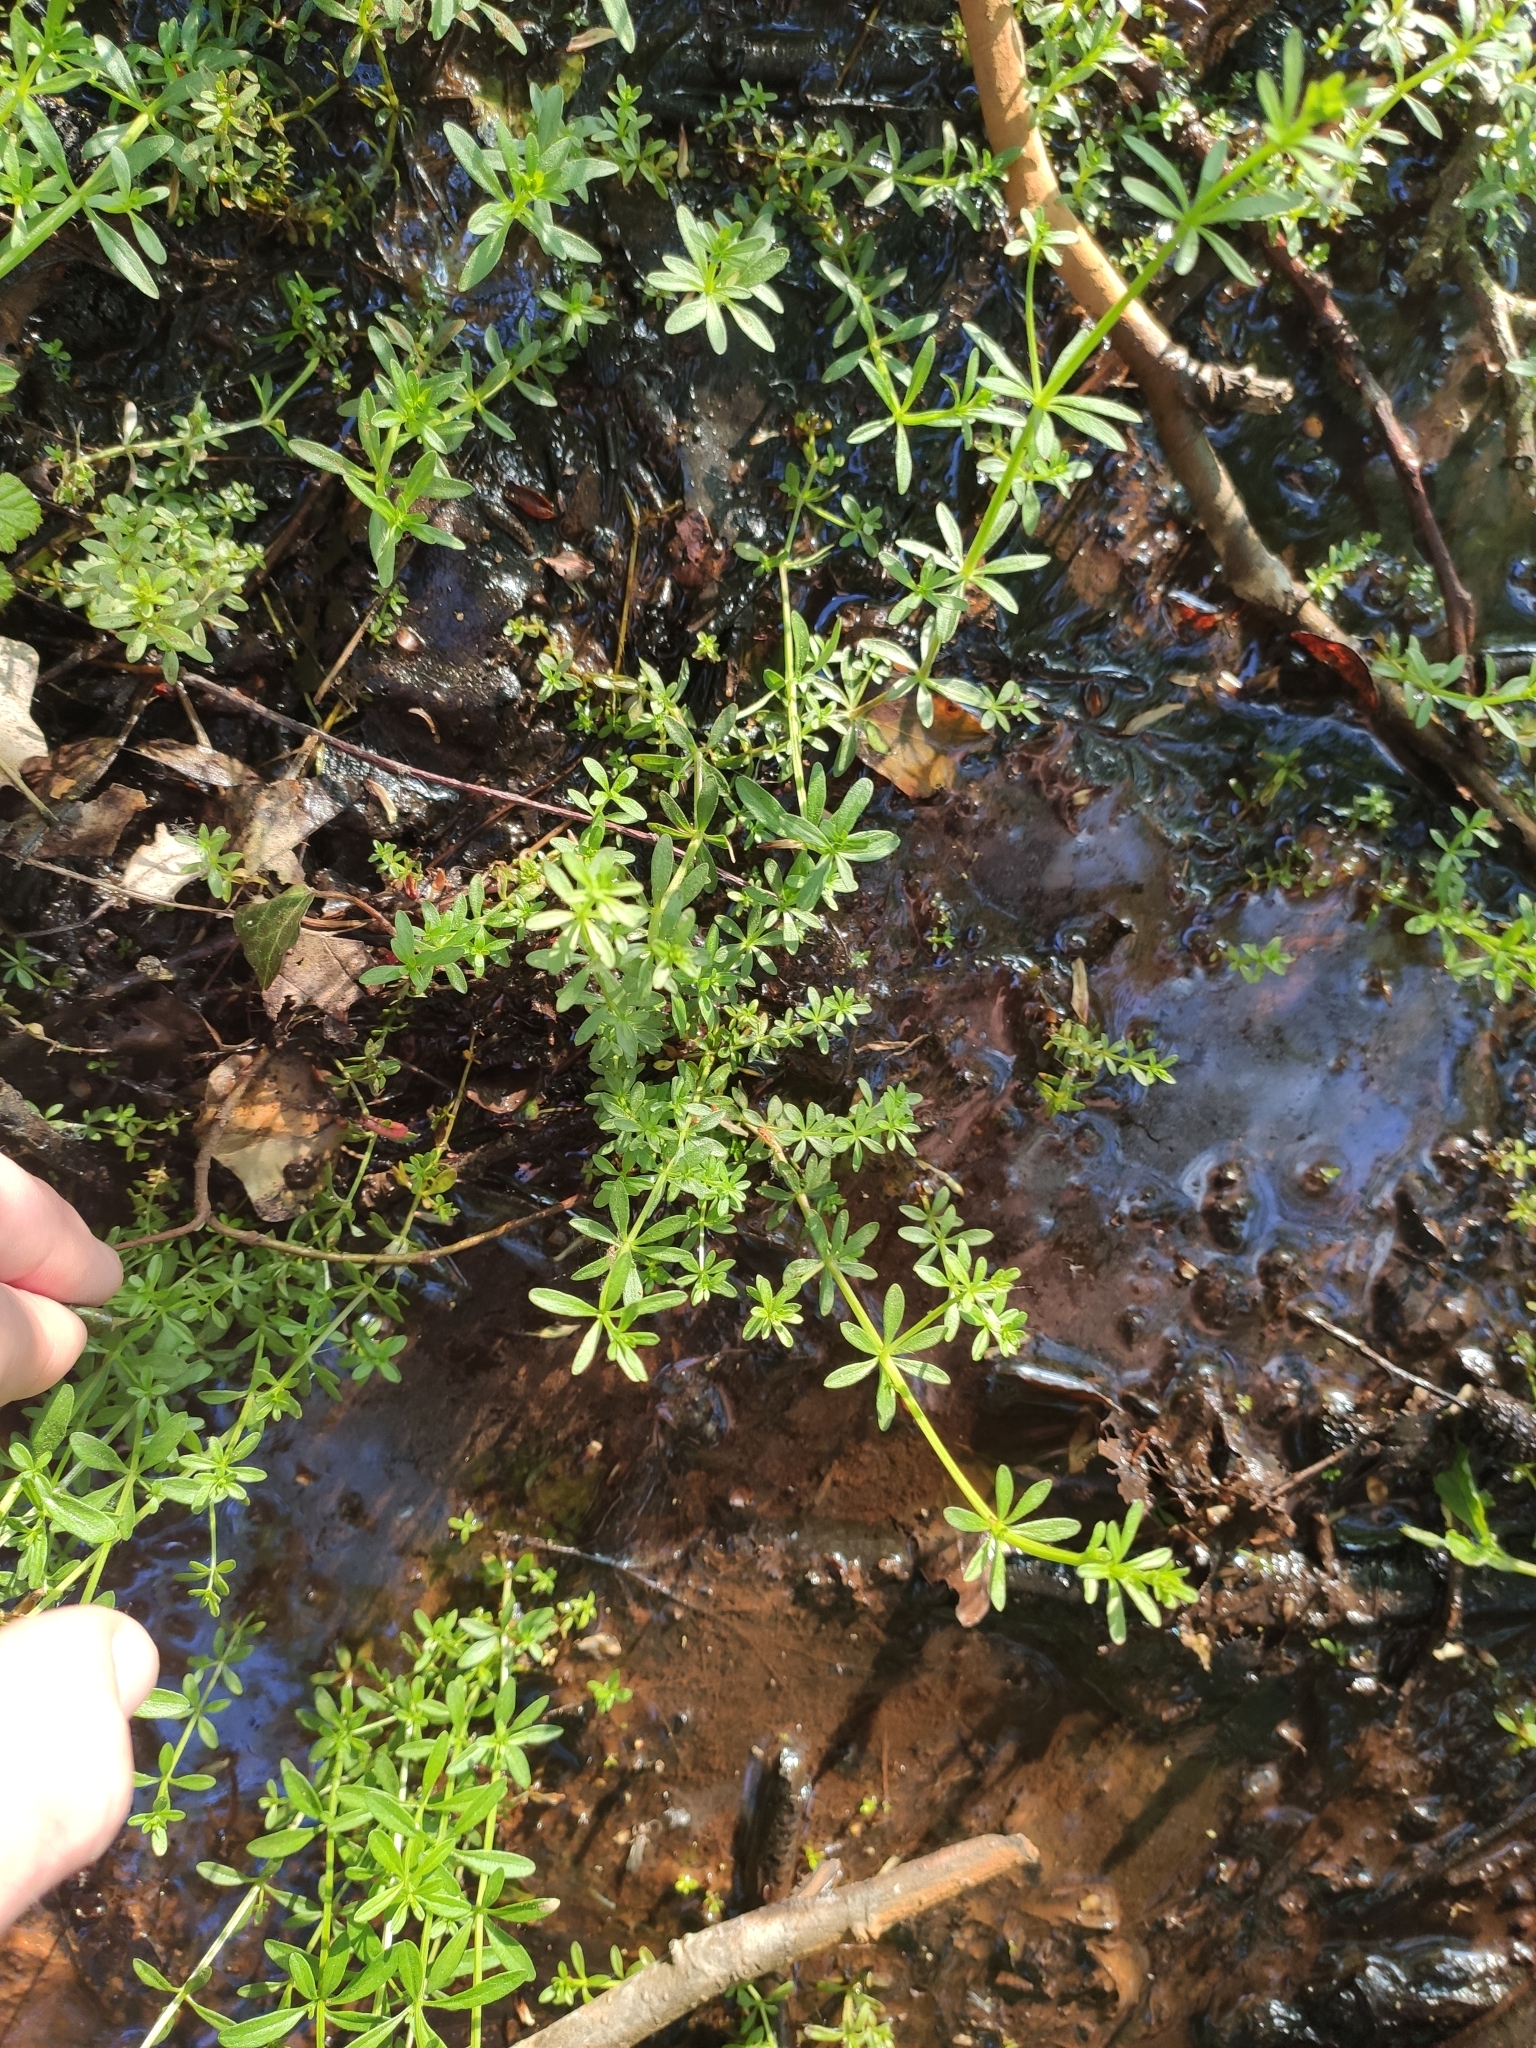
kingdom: Plantae
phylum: Tracheophyta
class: Magnoliopsida
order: Gentianales
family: Rubiaceae
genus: Galium
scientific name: Galium palustre
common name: Common marsh-bedstraw
